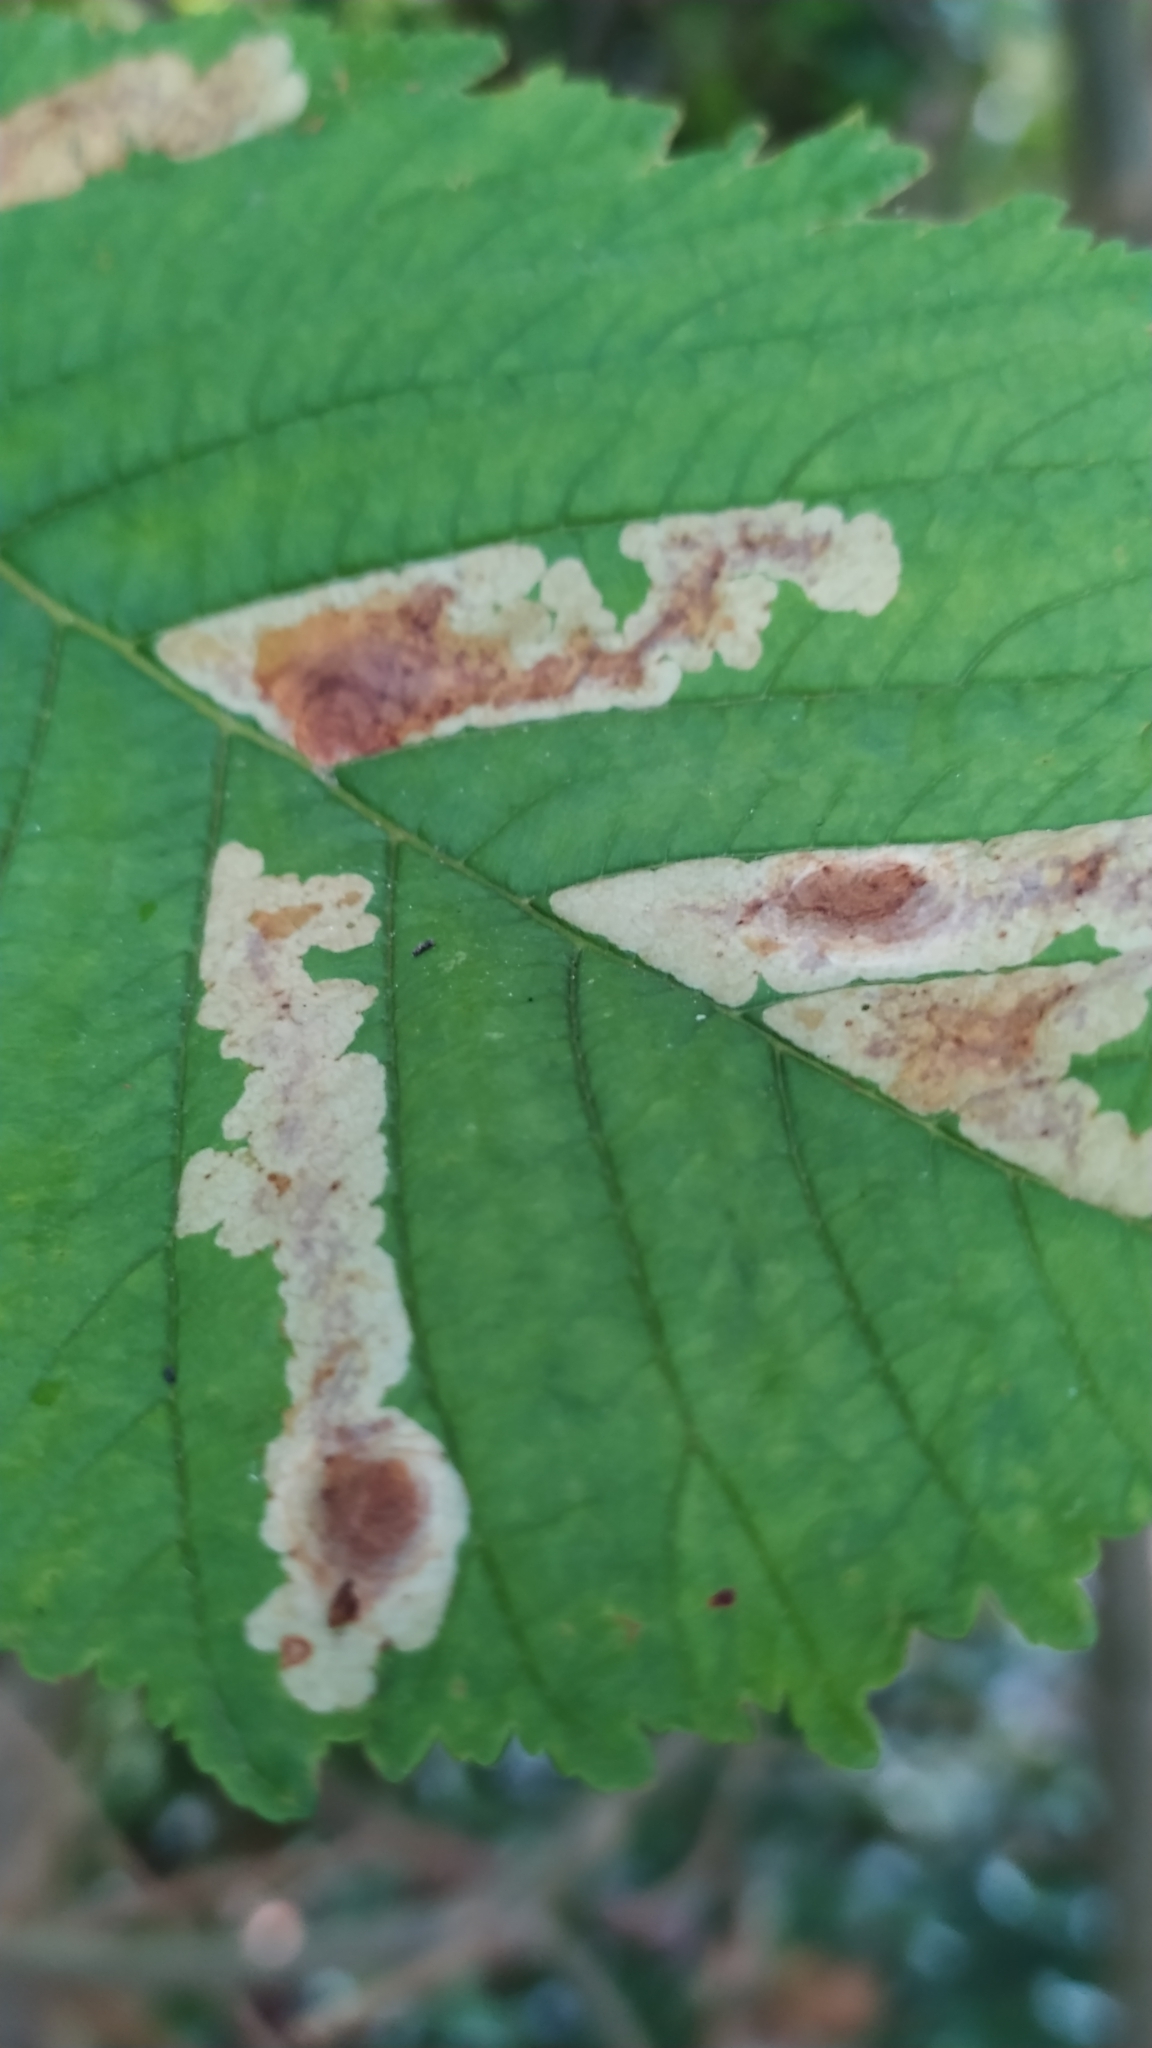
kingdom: Animalia
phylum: Arthropoda
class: Insecta
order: Lepidoptera
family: Gracillariidae
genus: Cameraria
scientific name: Cameraria ohridella
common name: Horse-chestnut leaf-miner
